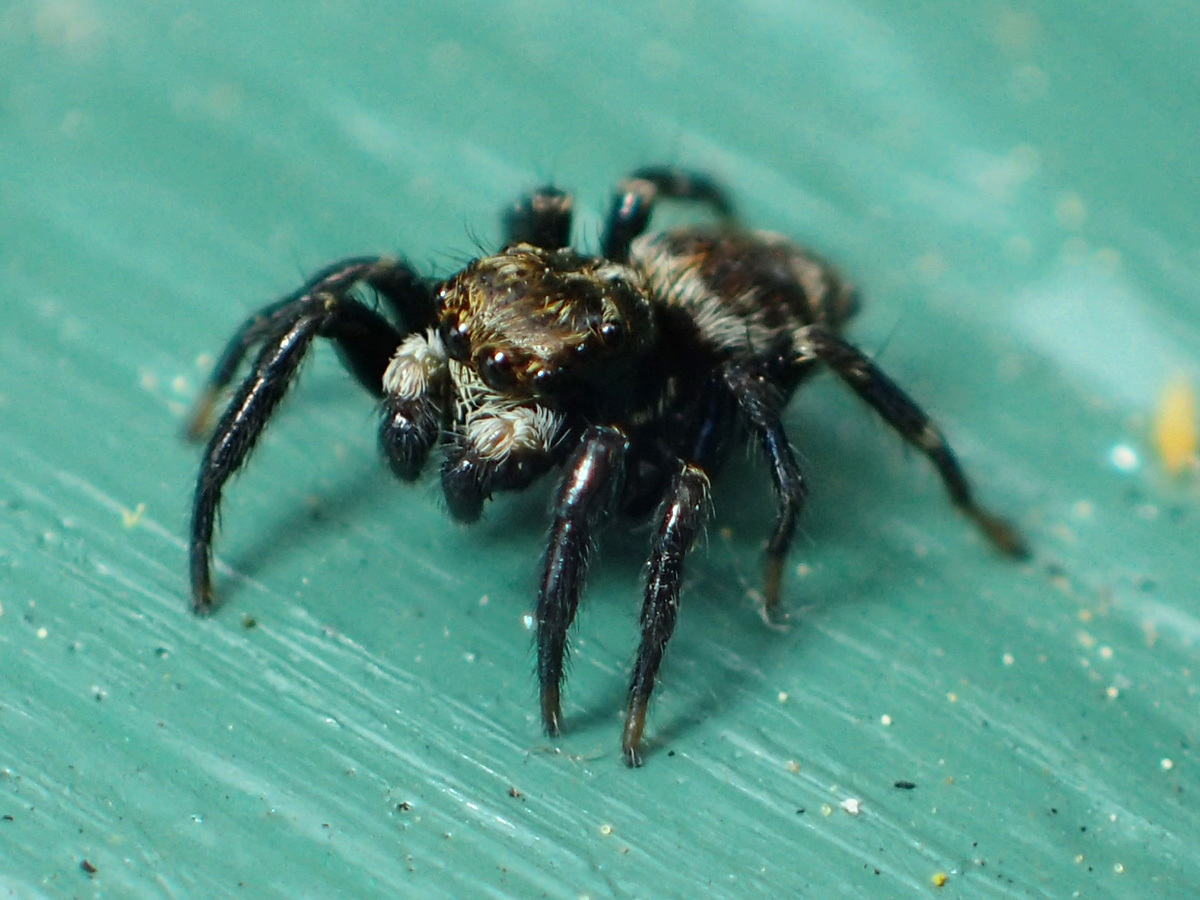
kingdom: Animalia
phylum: Arthropoda
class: Arachnida
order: Araneae
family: Salticidae
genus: Pseudeuophrys
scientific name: Pseudeuophrys erratica
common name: Jumping spider
